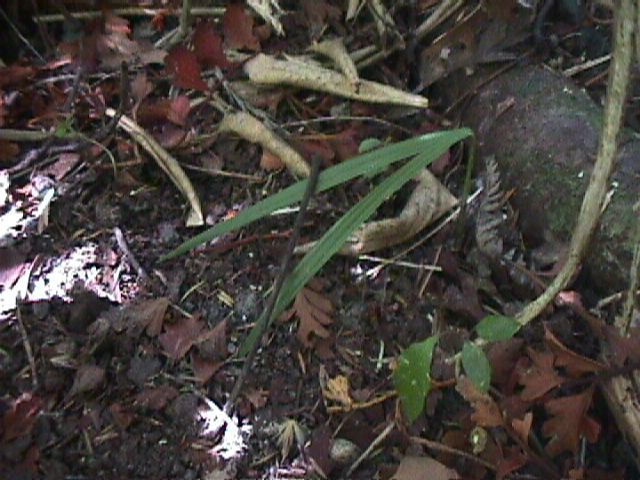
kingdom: Plantae
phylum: Tracheophyta
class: Liliopsida
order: Arecales
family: Arecaceae
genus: Rhopalostylis
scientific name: Rhopalostylis sapida
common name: Feather-duster palm
